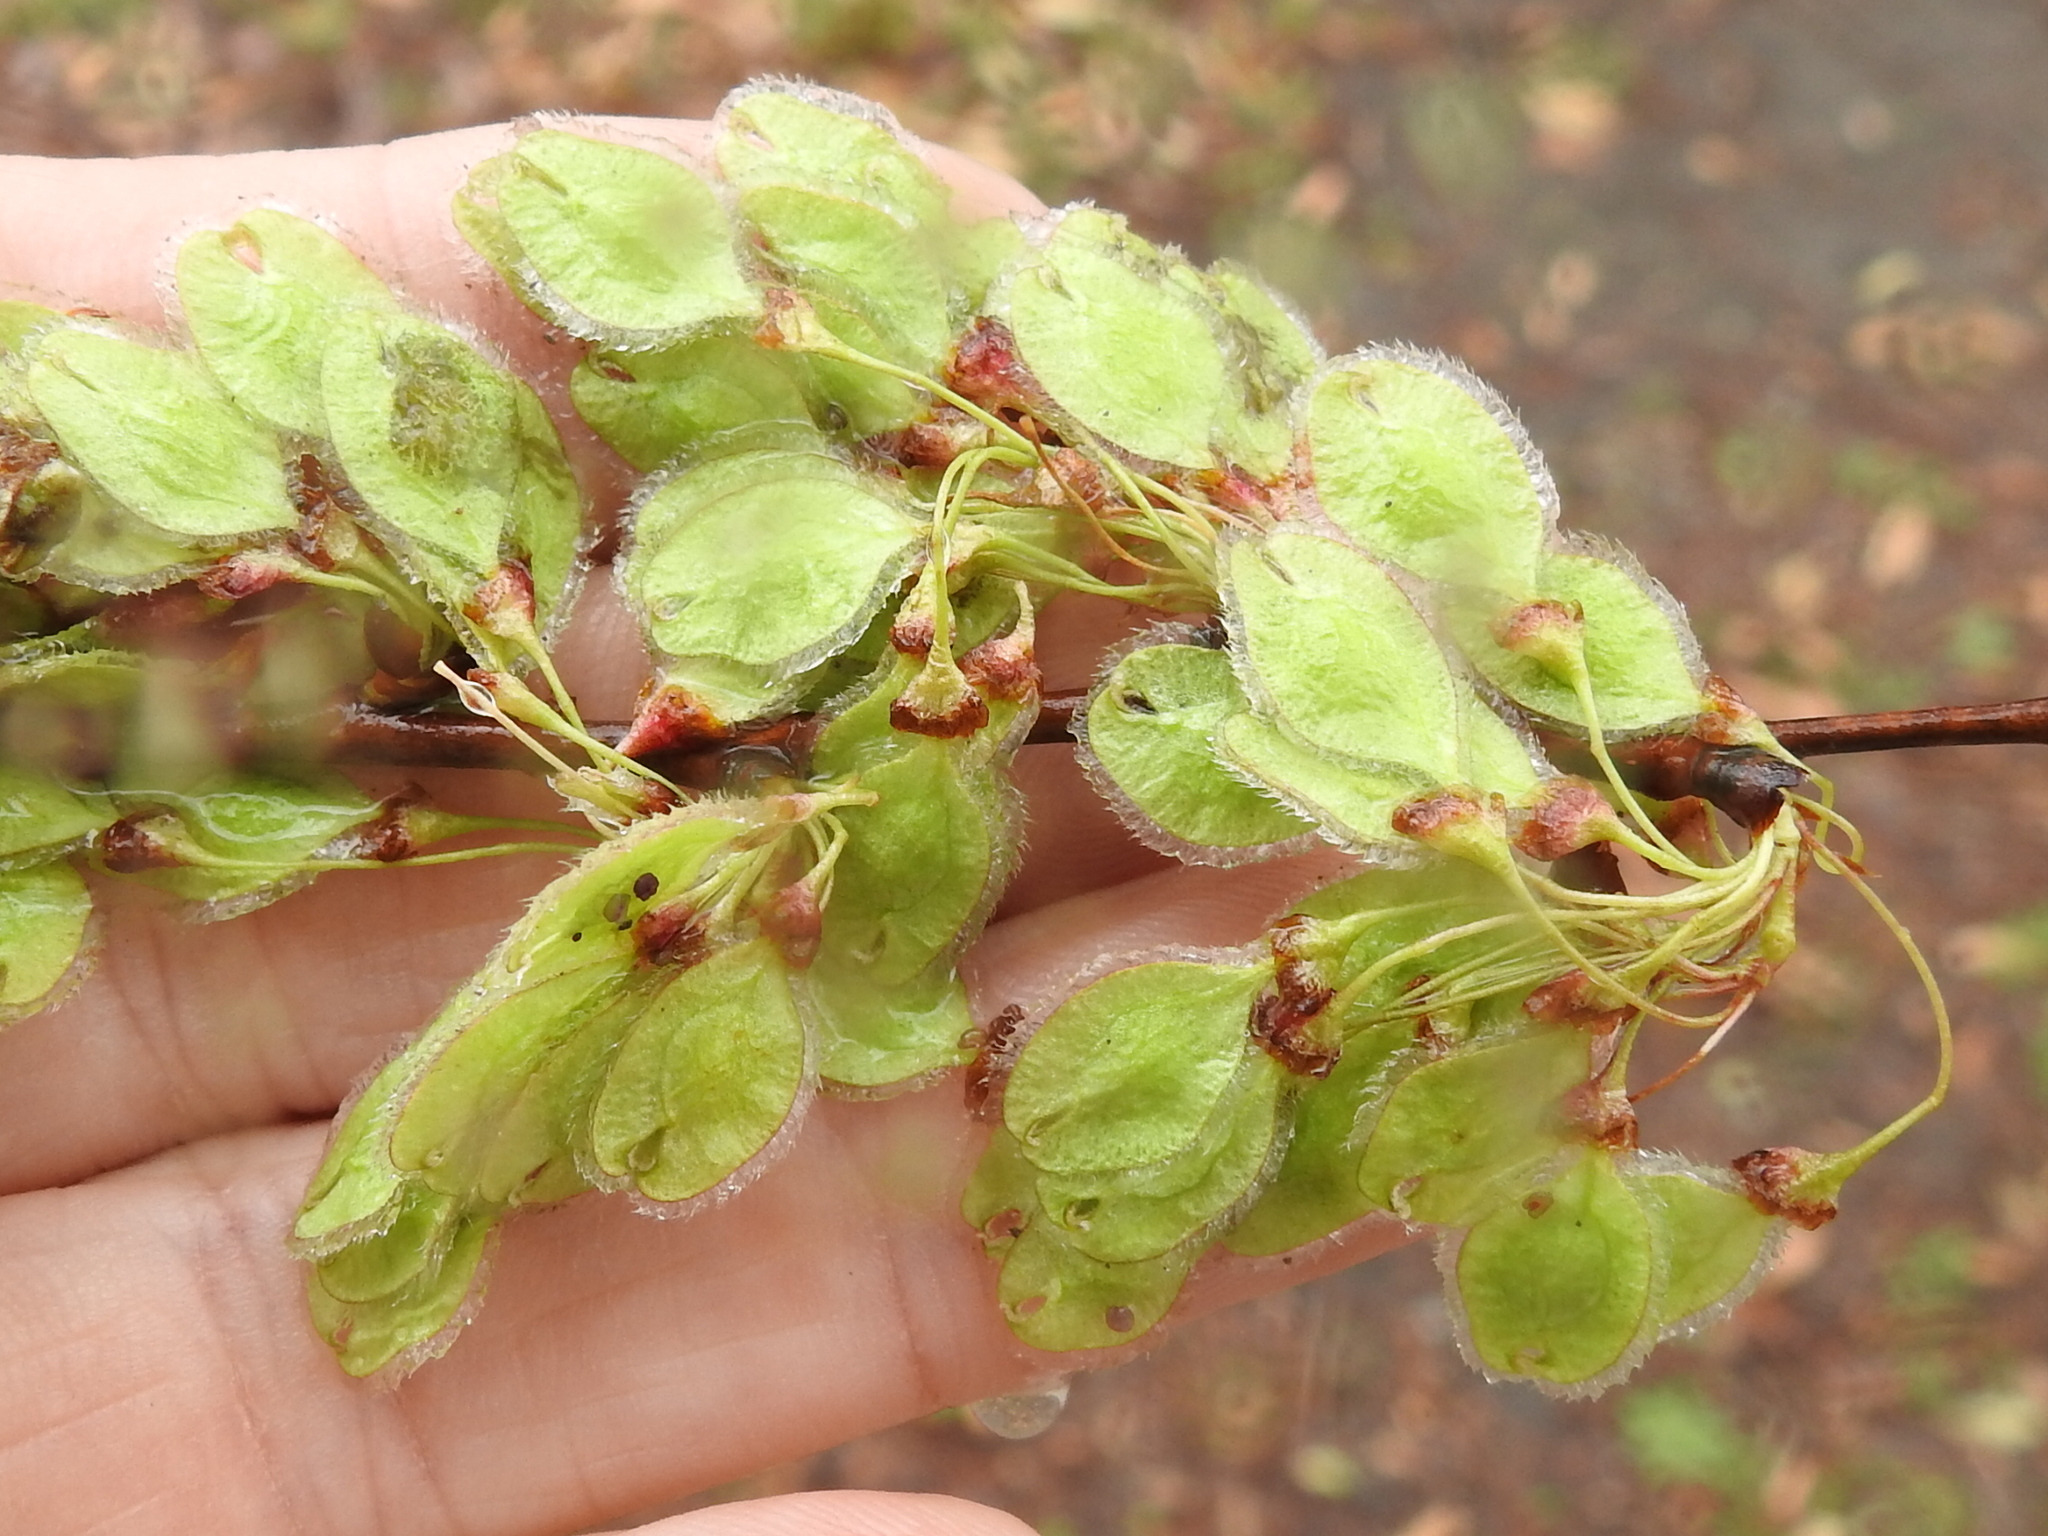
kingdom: Plantae
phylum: Tracheophyta
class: Magnoliopsida
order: Rosales
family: Ulmaceae
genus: Ulmus
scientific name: Ulmus americana
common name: American elm
